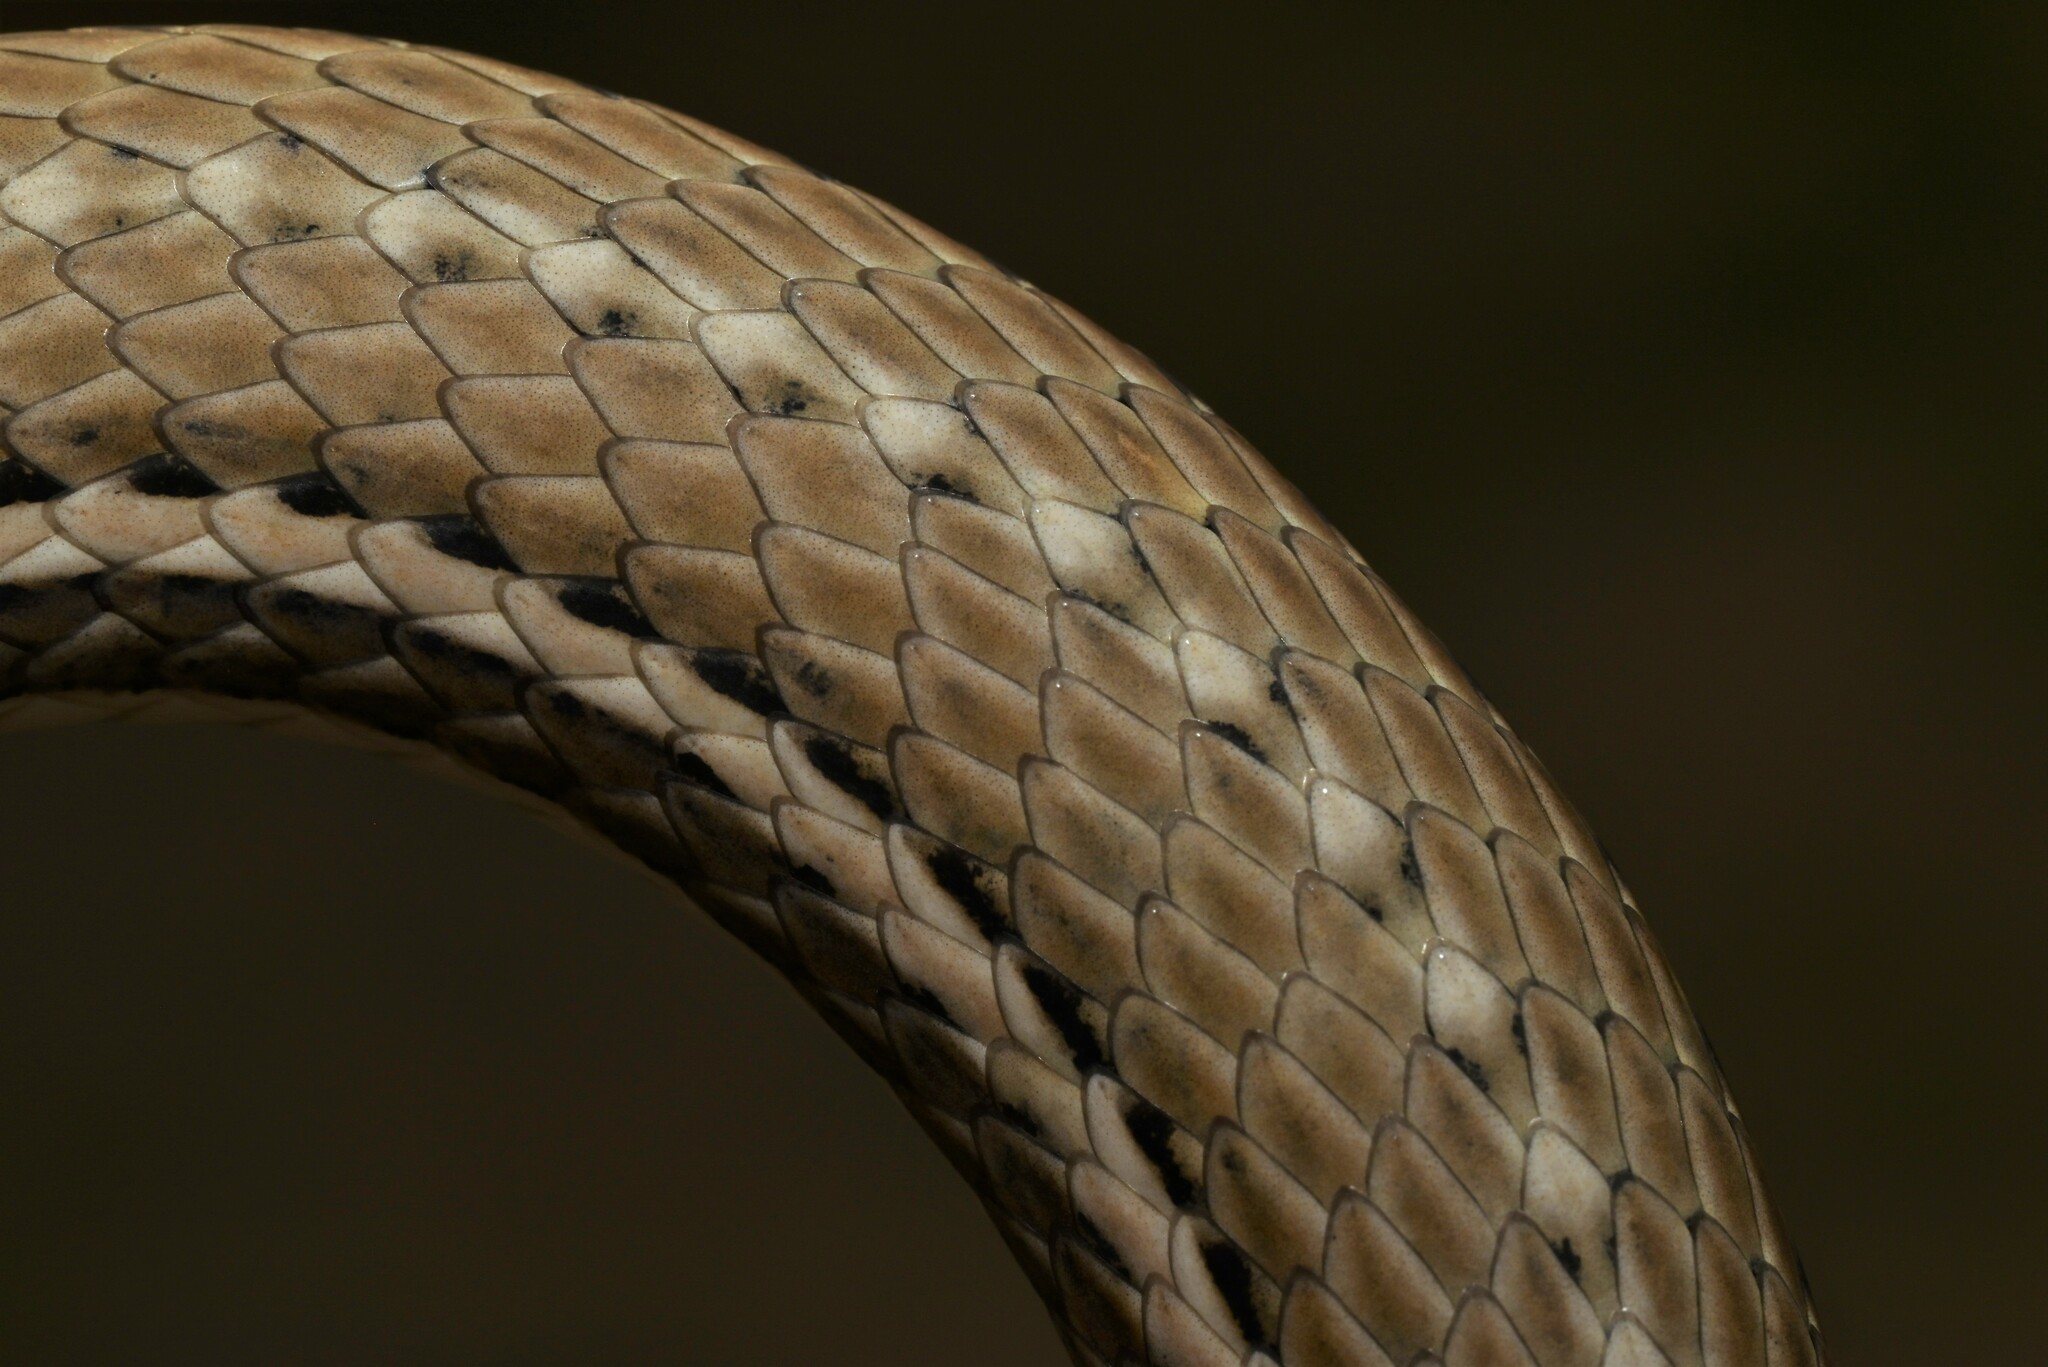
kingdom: Animalia
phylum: Chordata
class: Squamata
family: Psammophiidae
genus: Psammophis
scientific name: Psammophis schokari
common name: Schokari sand racer
